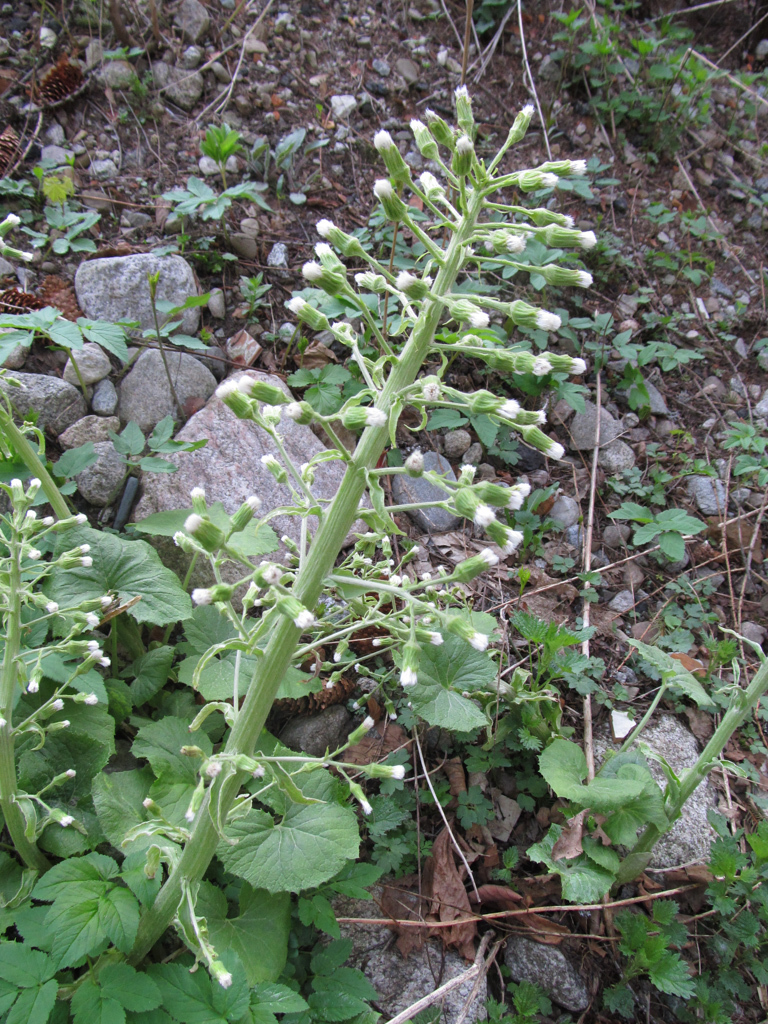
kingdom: Plantae
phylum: Tracheophyta
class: Magnoliopsida
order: Asterales
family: Asteraceae
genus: Petasites
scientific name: Petasites albus
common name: White butterbur
